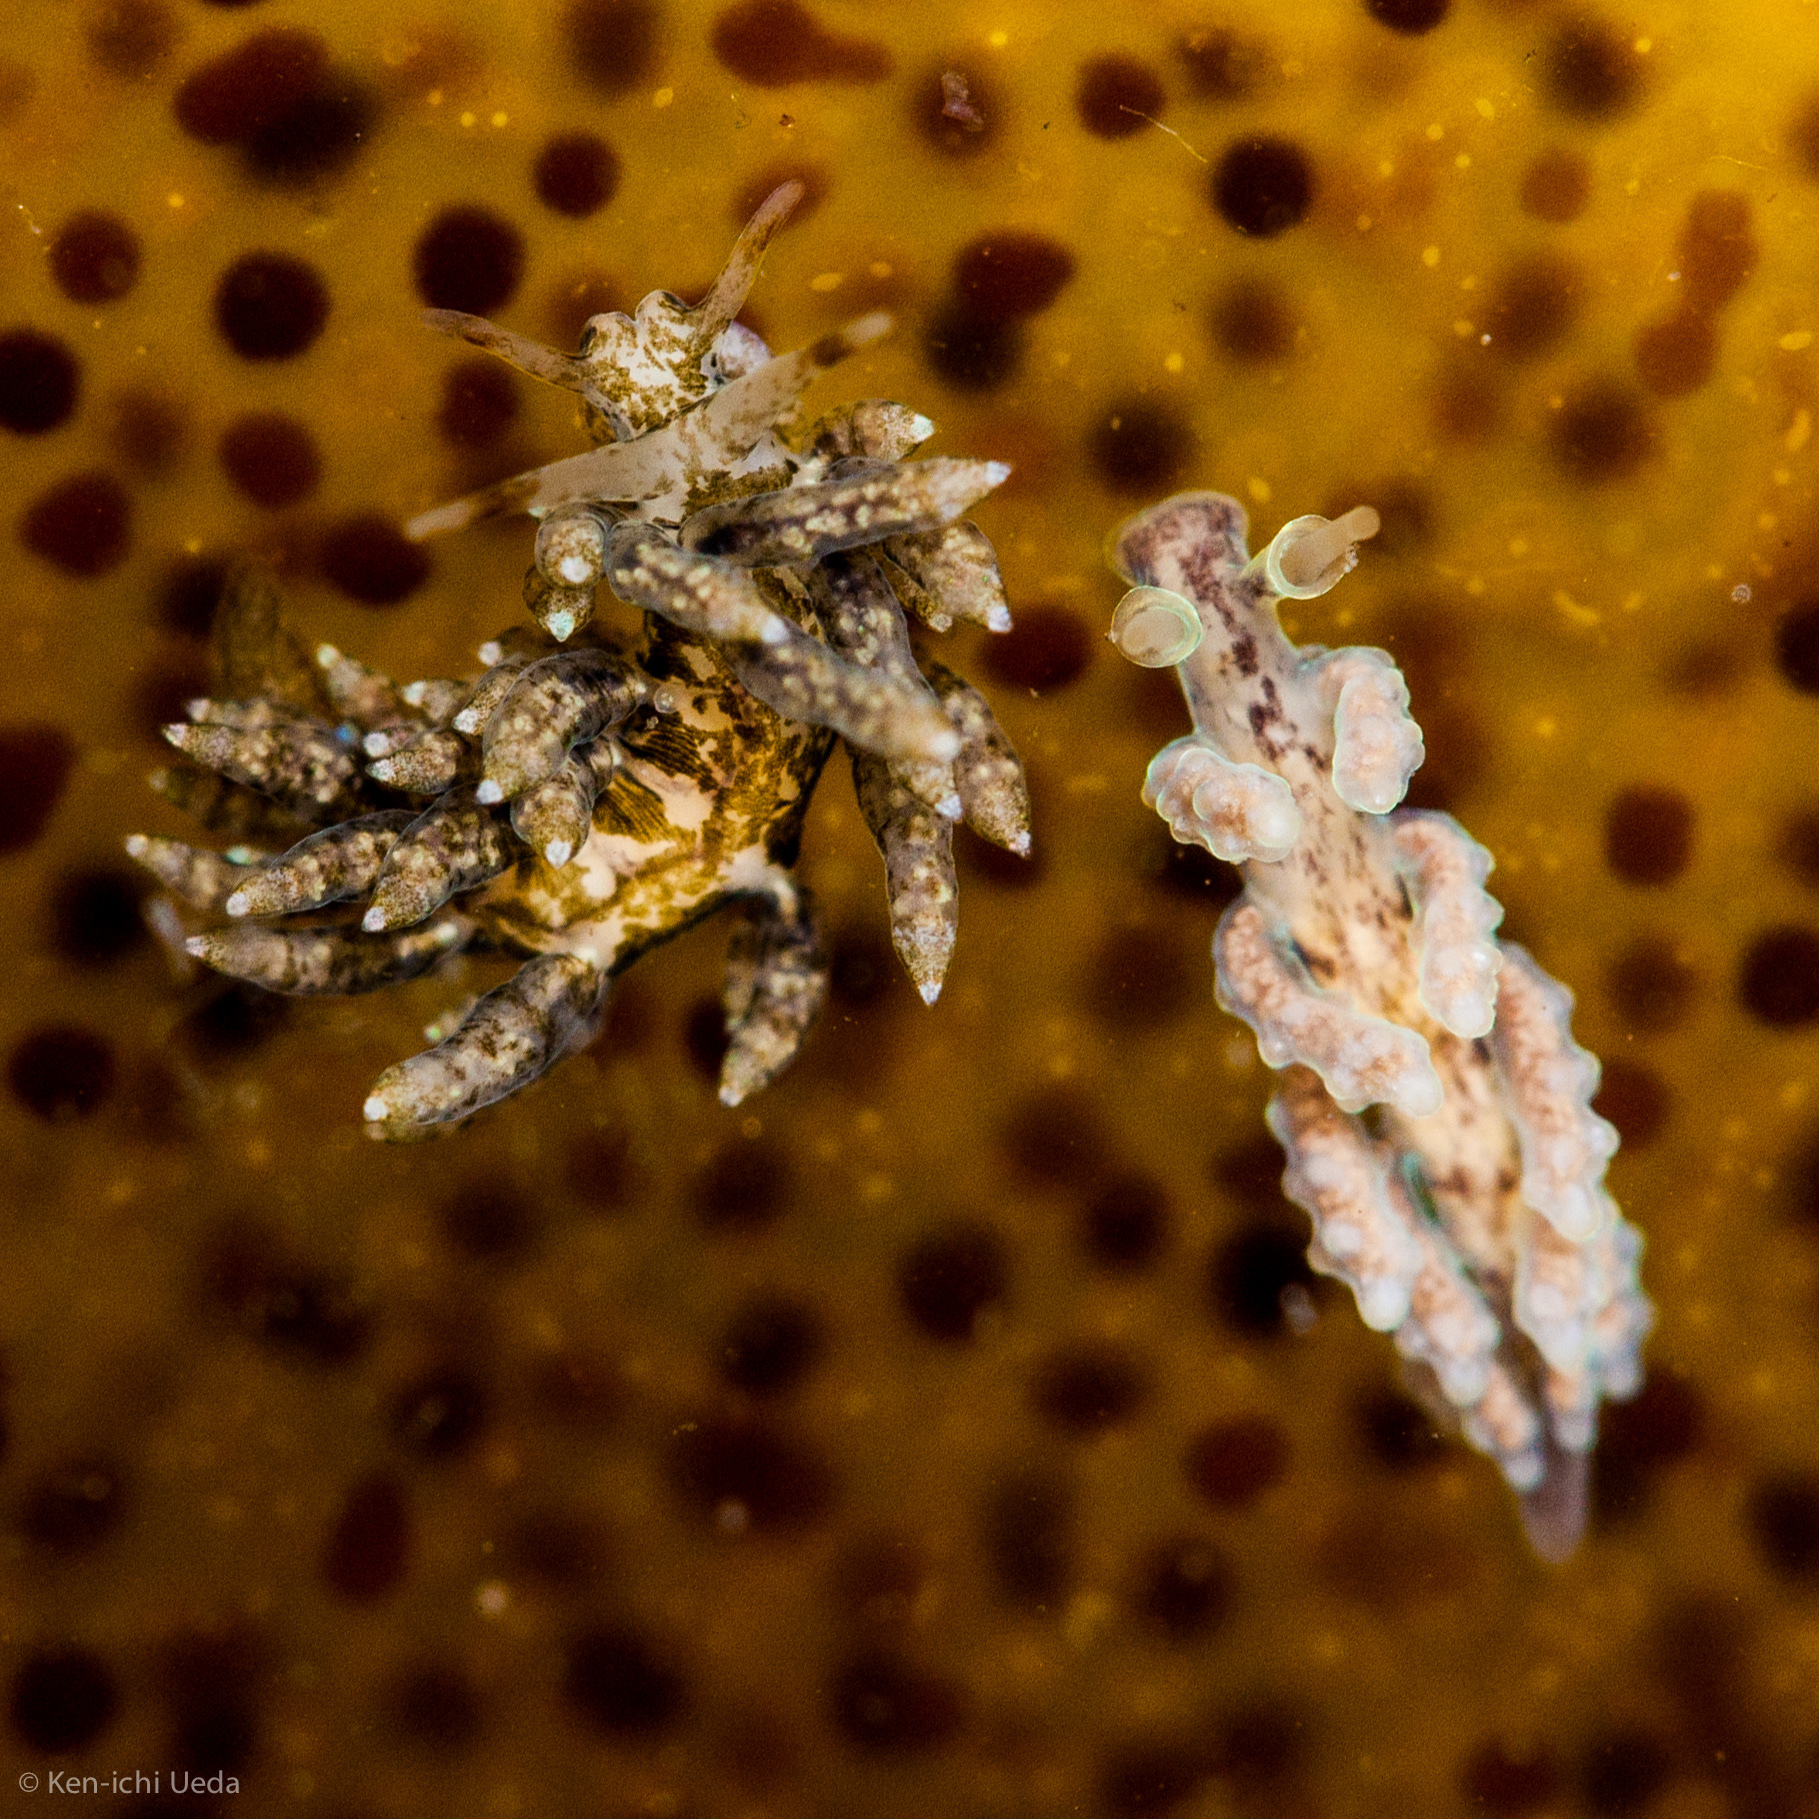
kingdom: Animalia
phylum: Mollusca
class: Gastropoda
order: Nudibranchia
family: Dotidae
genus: Doto
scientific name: Doto columbiana
